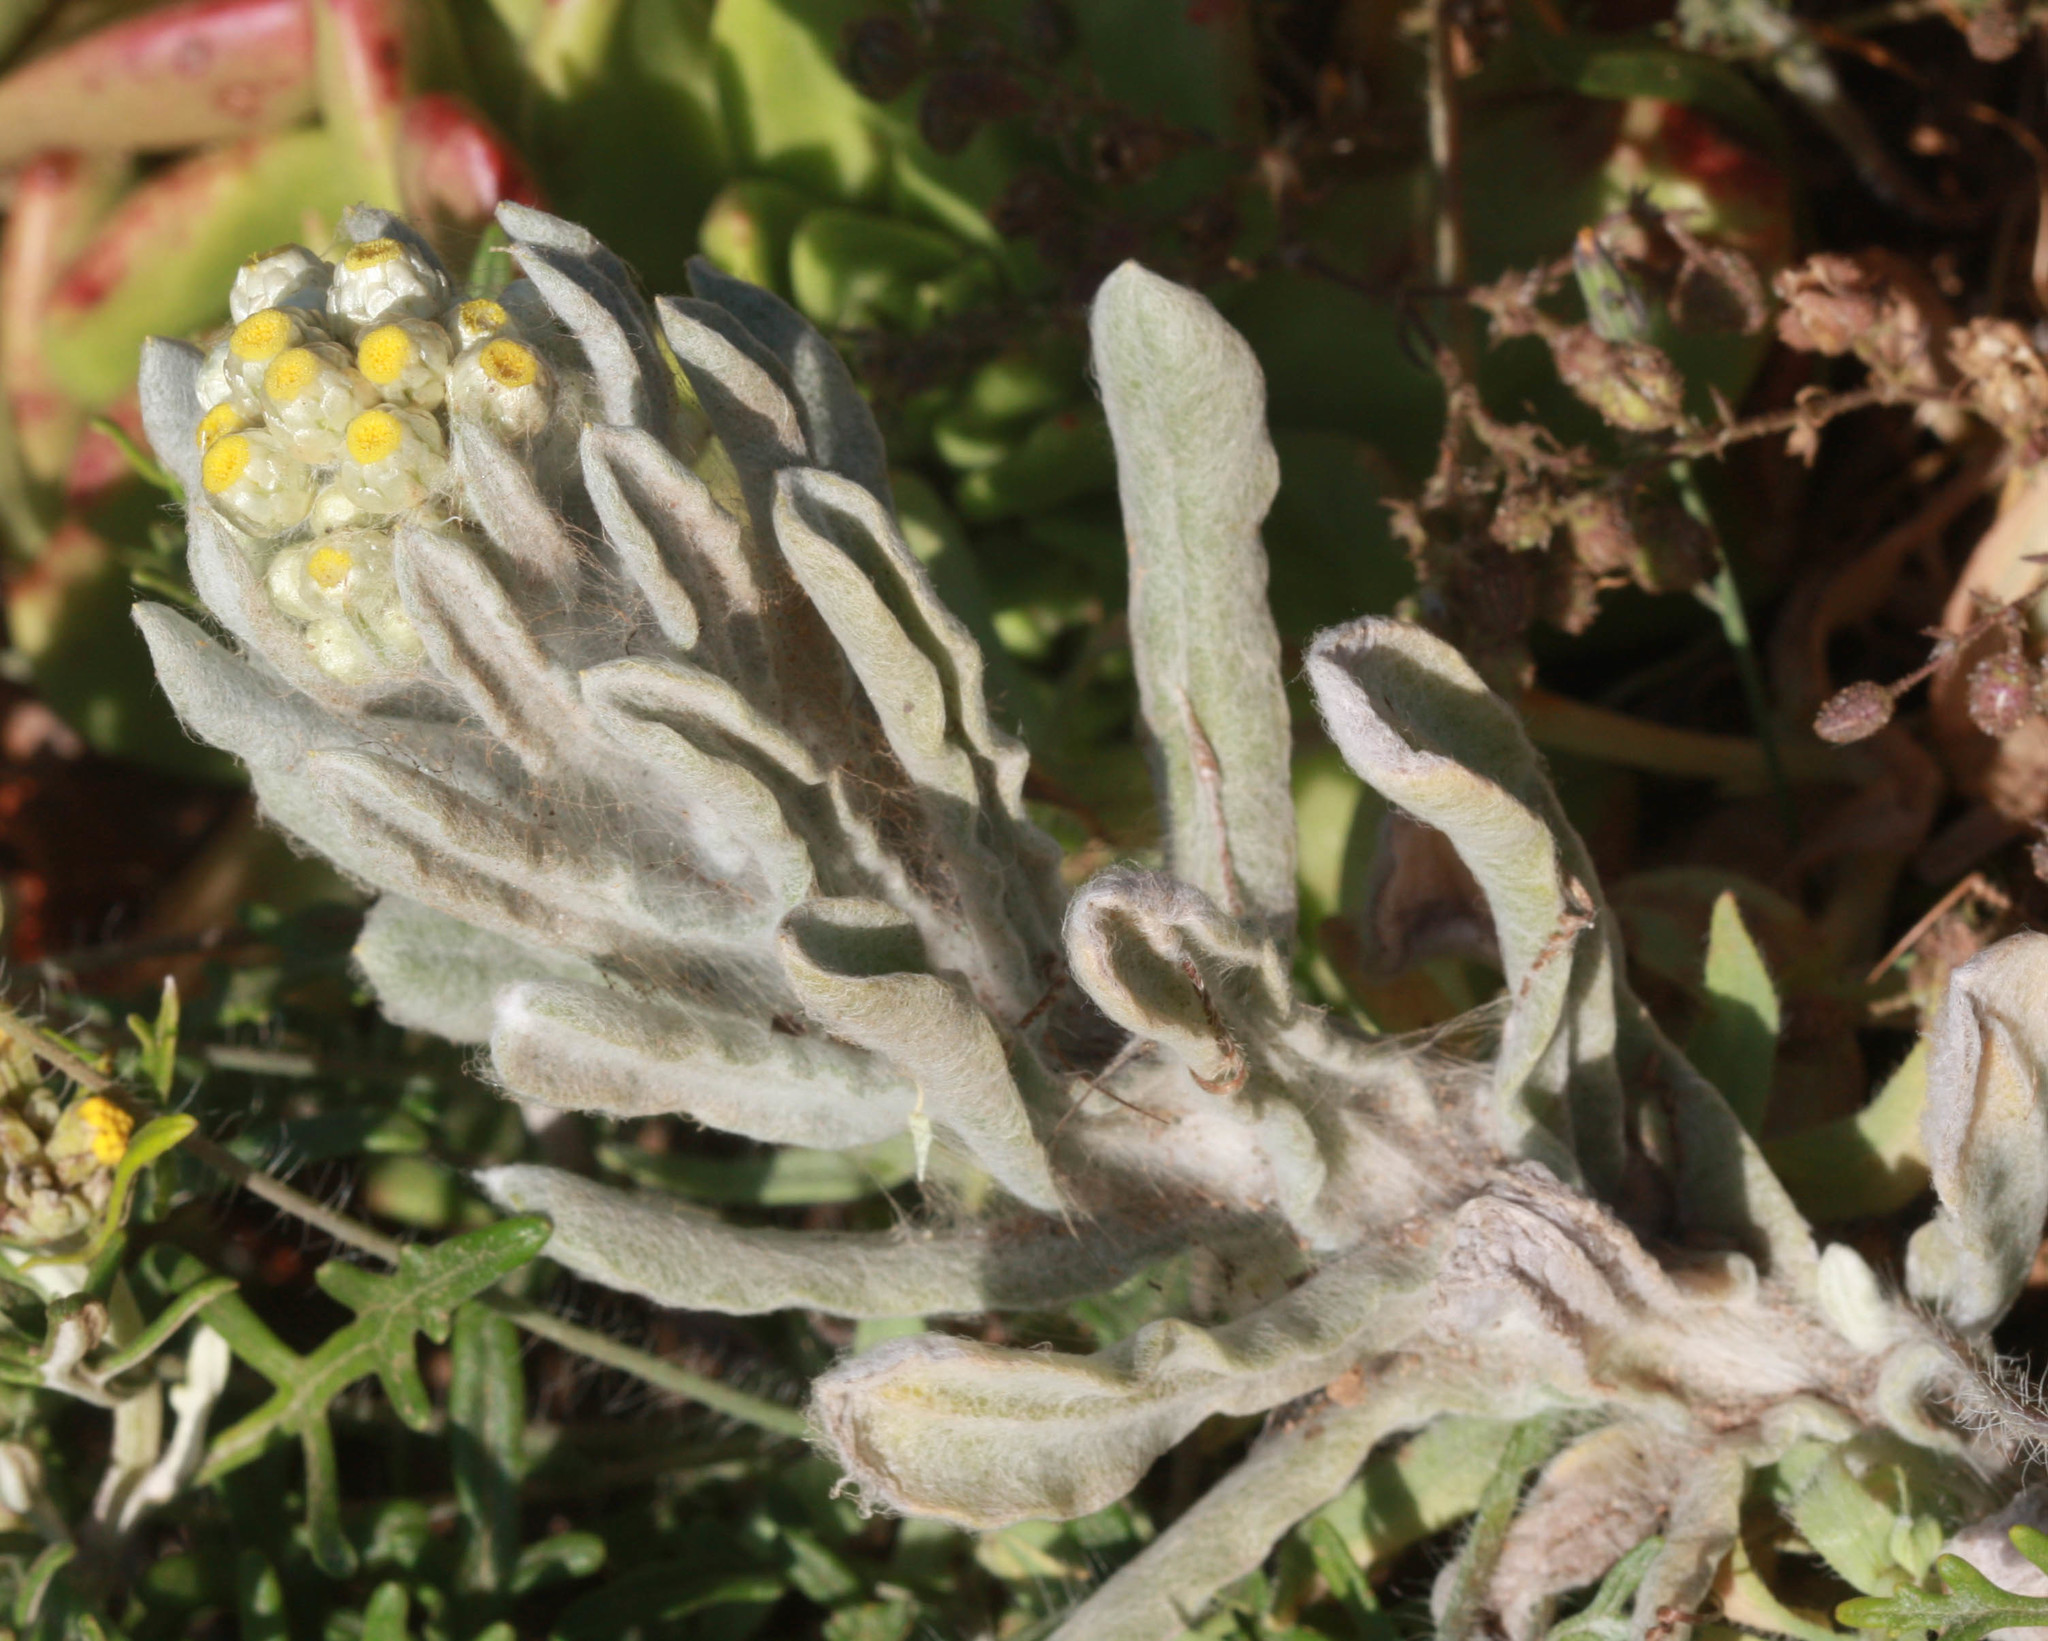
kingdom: Plantae
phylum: Tracheophyta
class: Magnoliopsida
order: Asterales
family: Asteraceae
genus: Pseudognaphalium
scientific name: Pseudognaphalium stramineum
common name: Cotton-batting-plant
